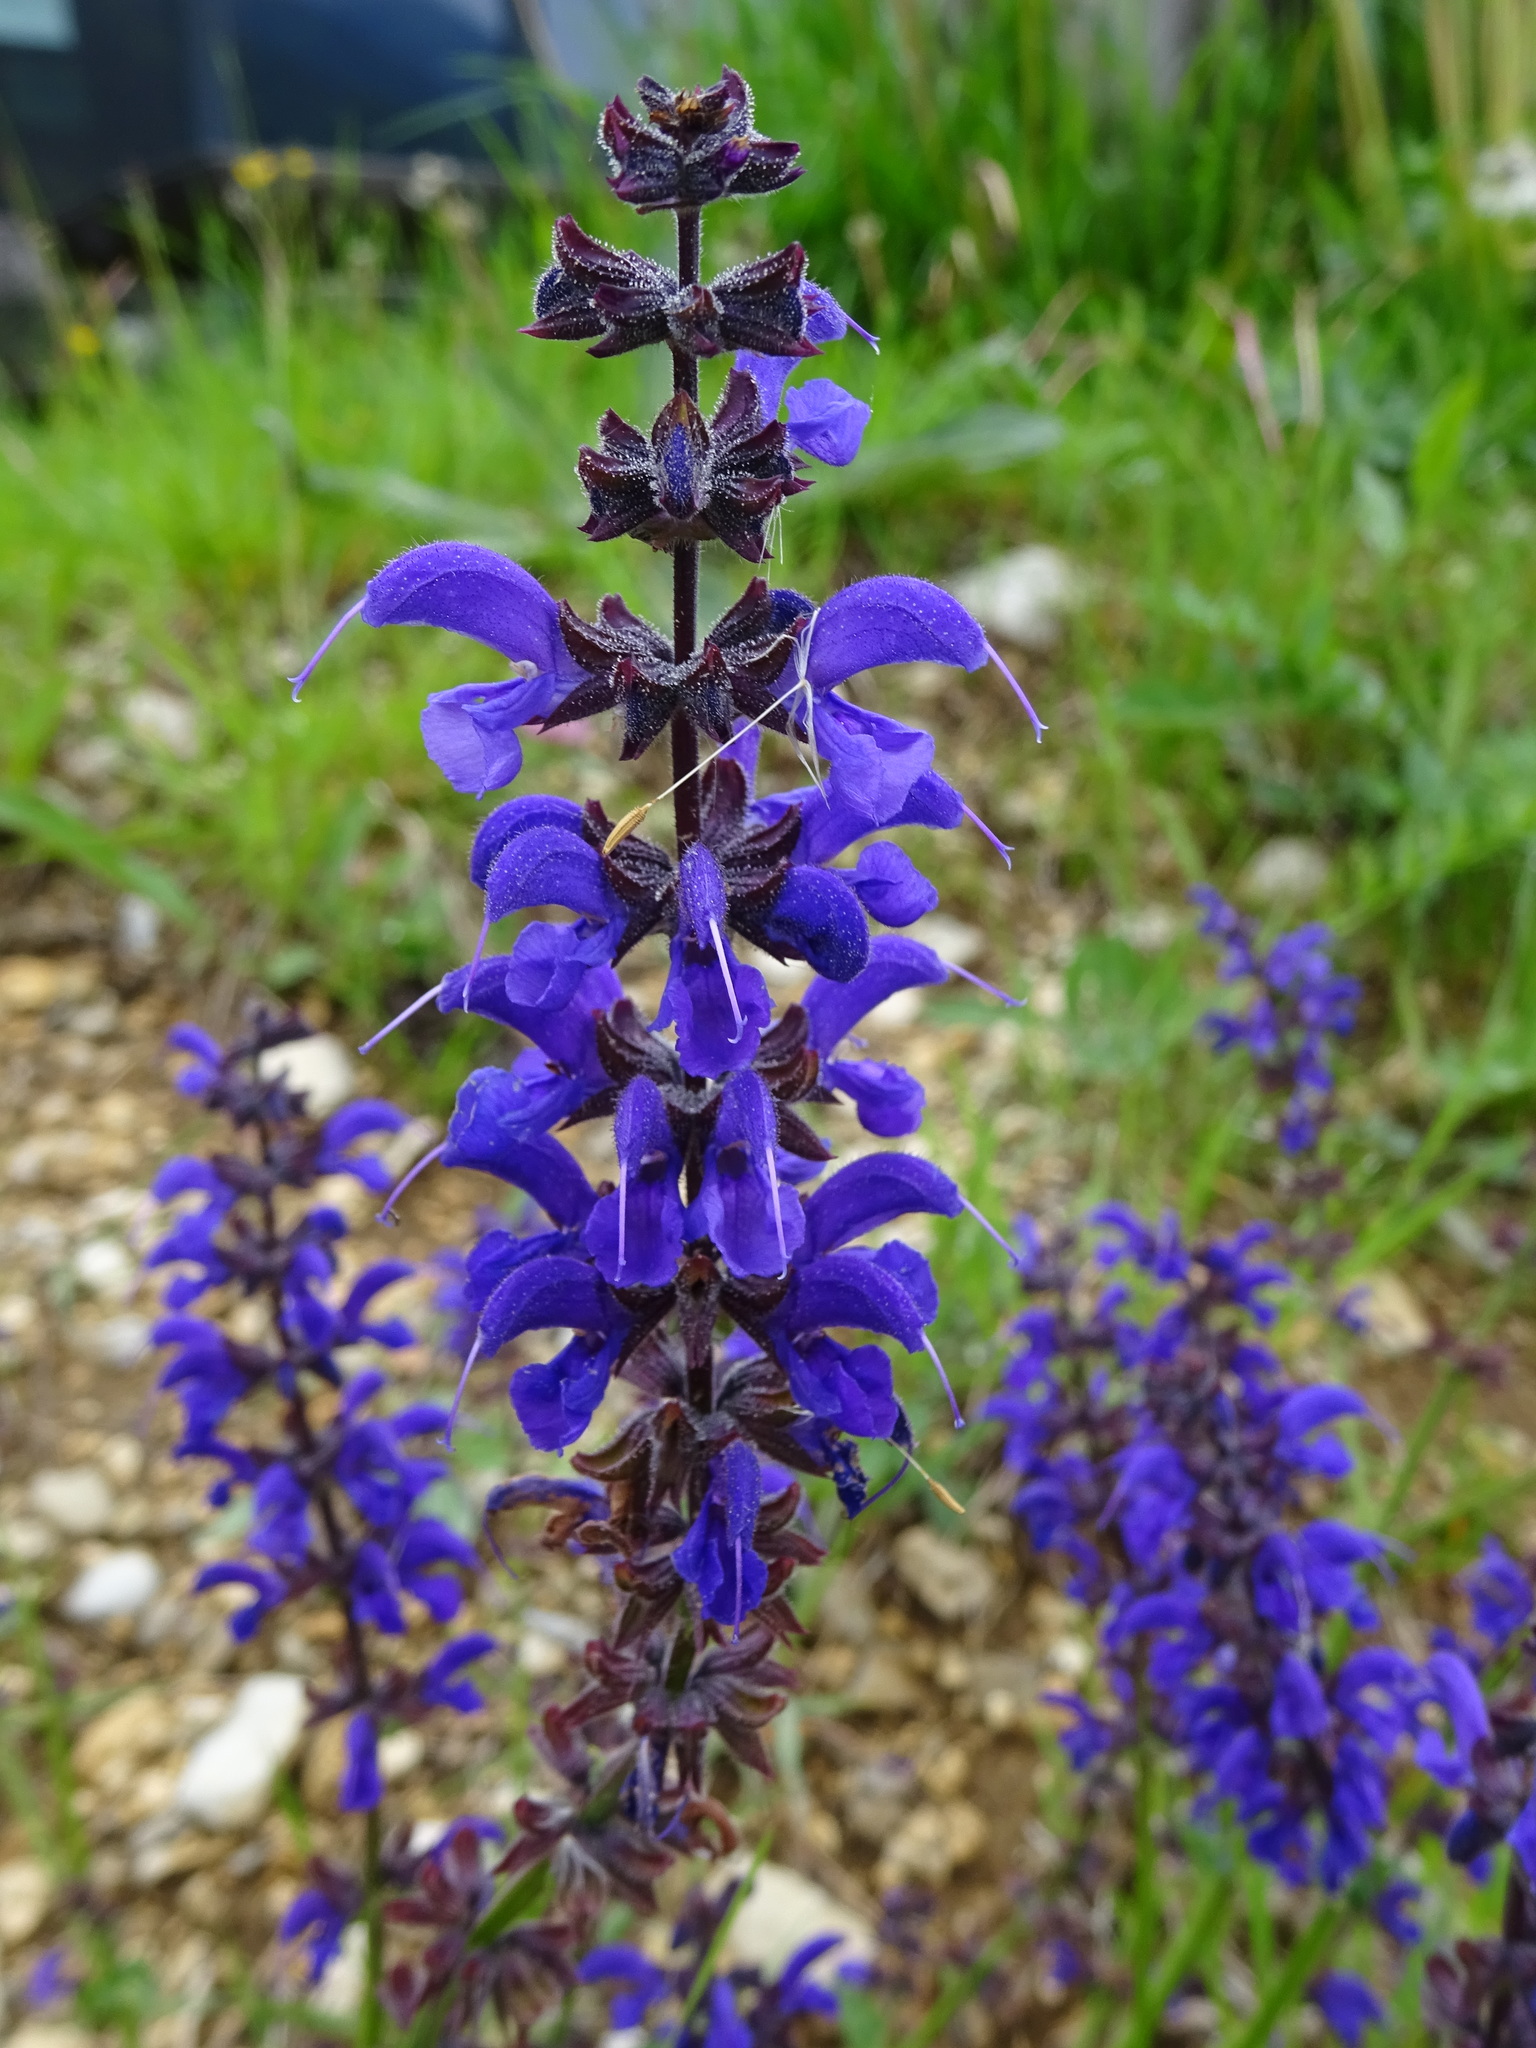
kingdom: Plantae
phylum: Tracheophyta
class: Magnoliopsida
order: Lamiales
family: Lamiaceae
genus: Salvia
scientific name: Salvia pratensis
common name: Meadow sage
